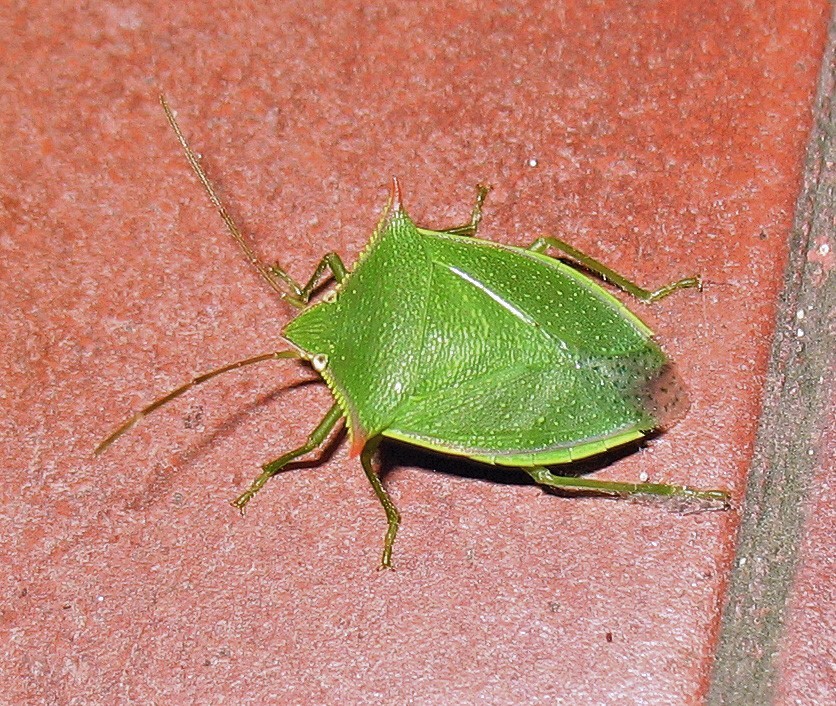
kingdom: Animalia
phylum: Arthropoda
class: Insecta
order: Hemiptera
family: Pentatomidae
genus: Loxa
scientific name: Loxa deducta
